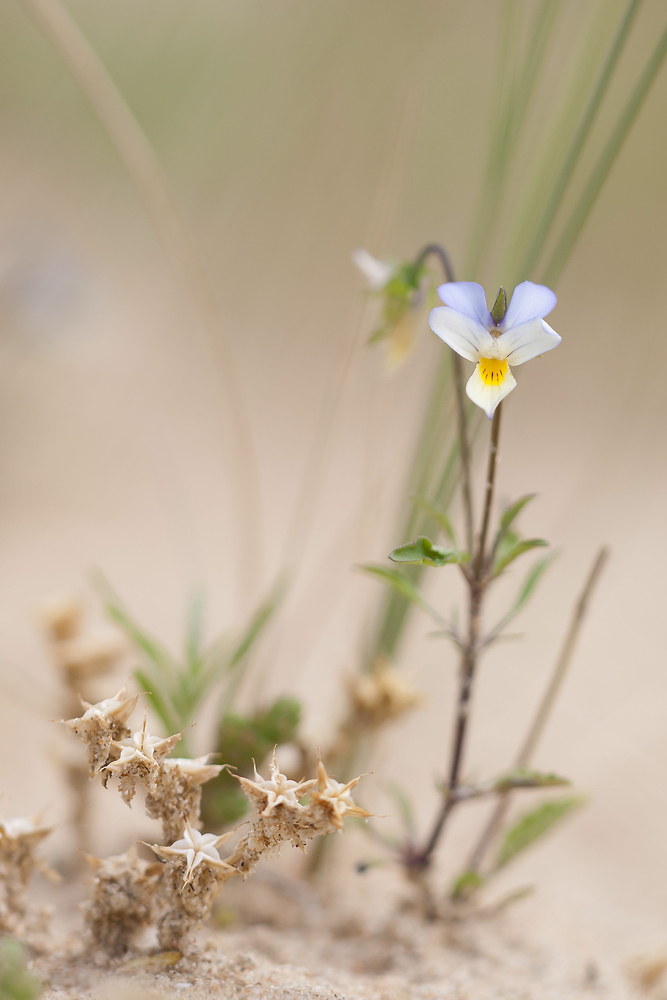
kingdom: Plantae
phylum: Tracheophyta
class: Magnoliopsida
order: Malpighiales
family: Violaceae
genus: Viola
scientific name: Viola tricolor
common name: Pansy
